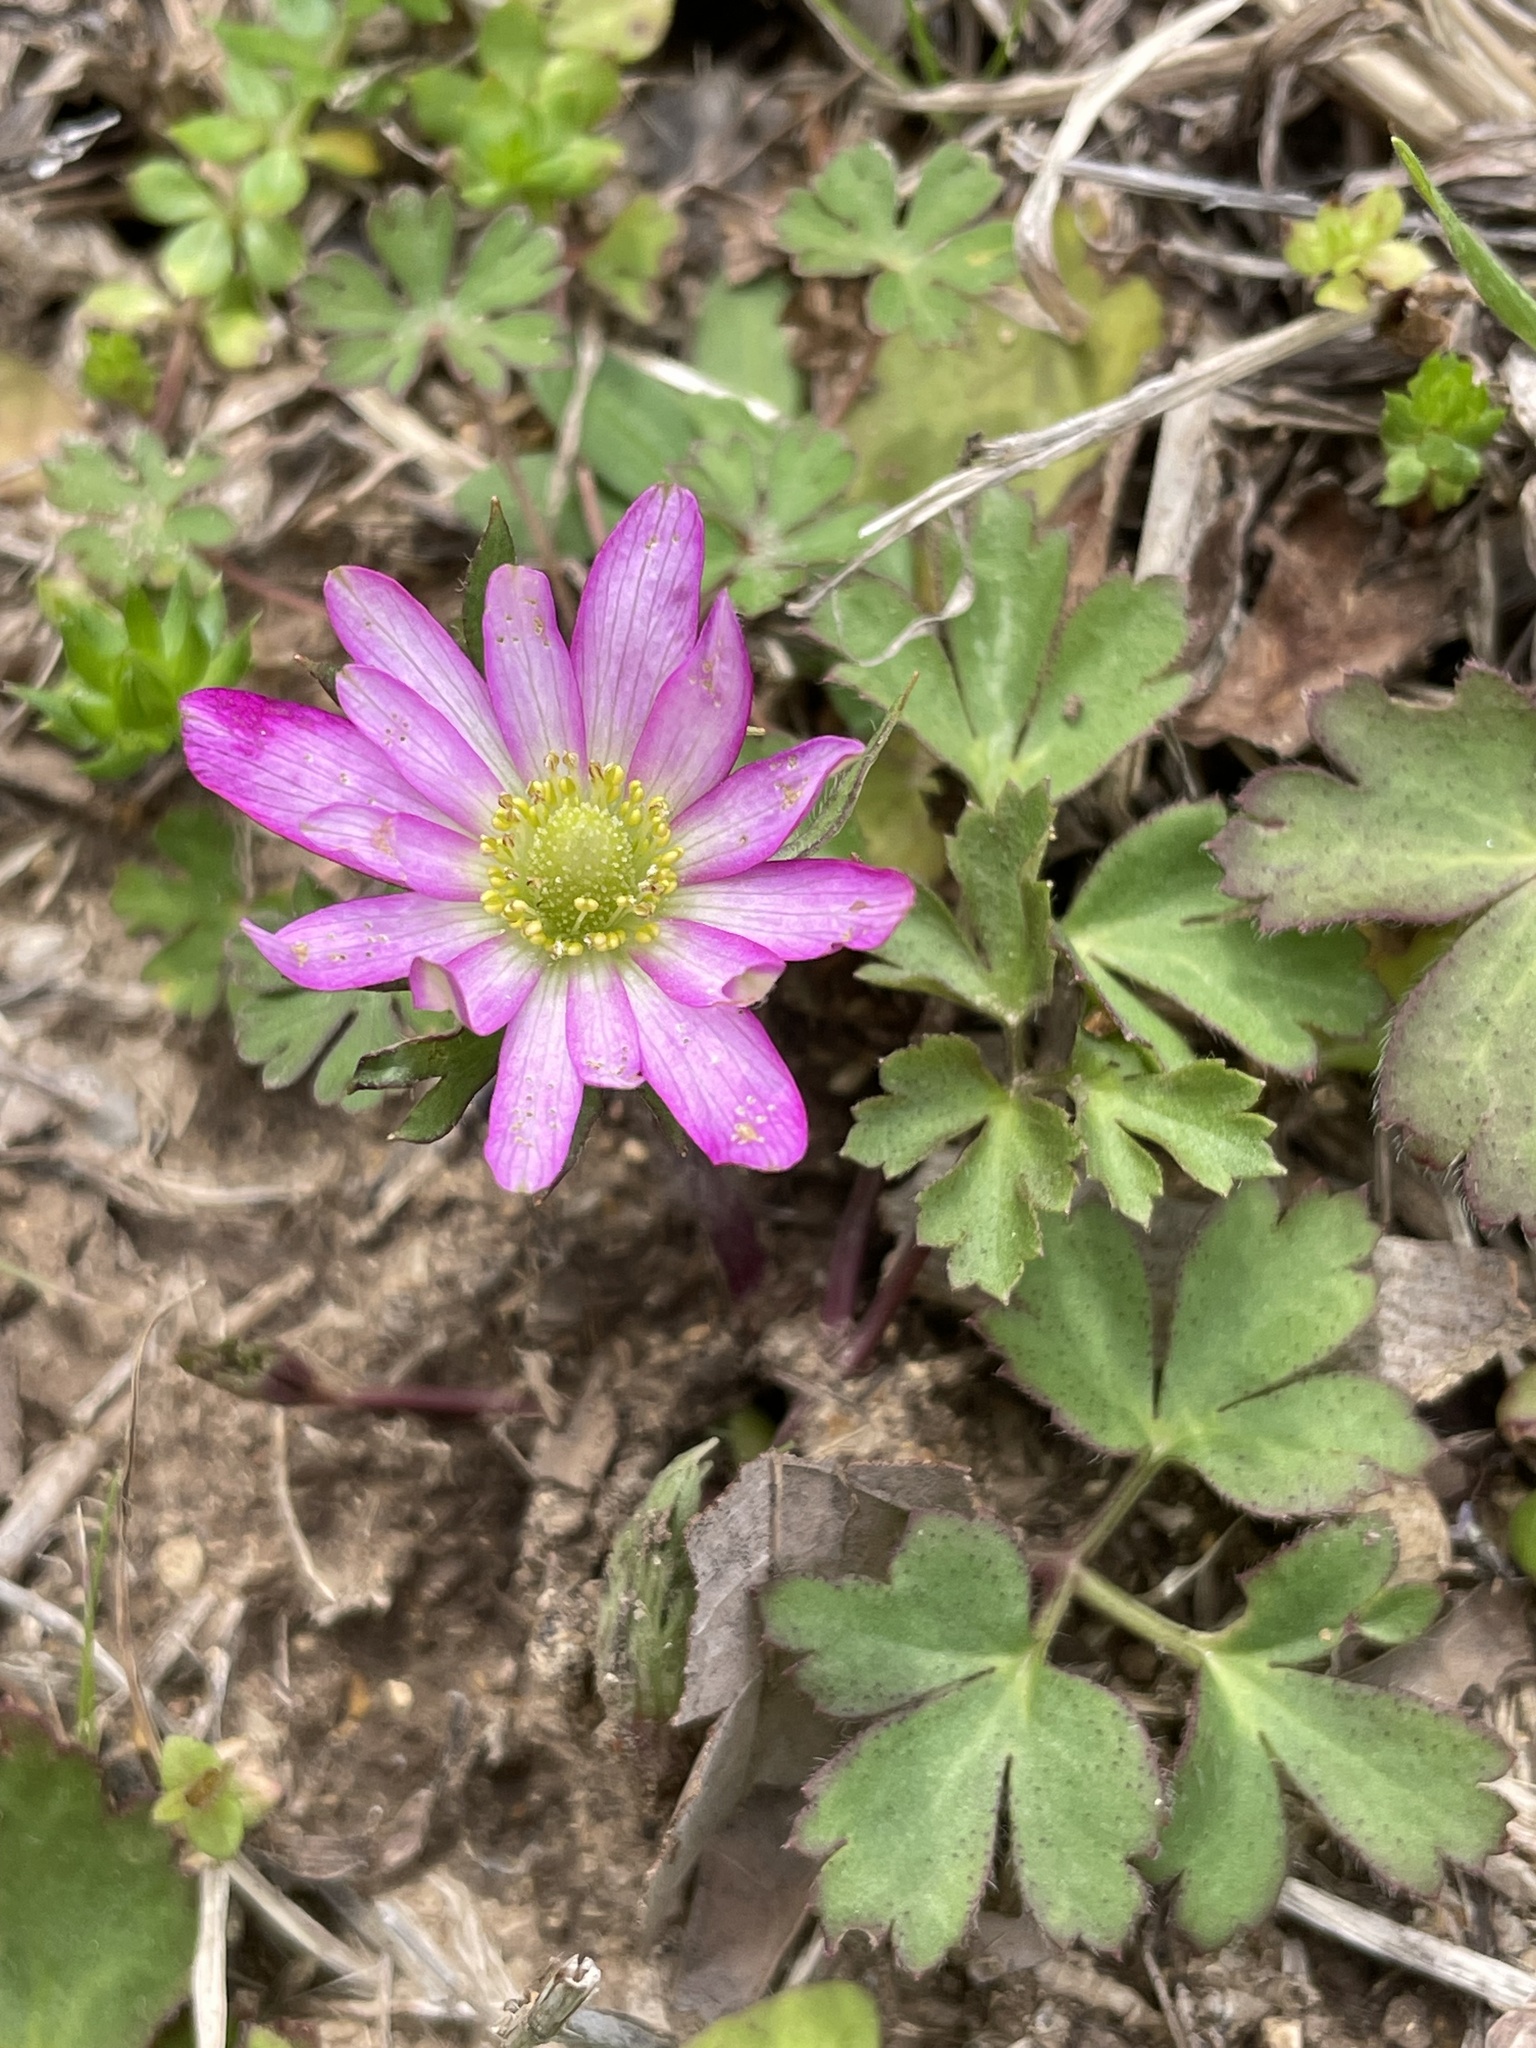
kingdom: Plantae
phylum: Tracheophyta
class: Magnoliopsida
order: Ranunculales
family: Ranunculaceae
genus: Anemone
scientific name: Anemone berlandieri
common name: Ten-petal anemone
